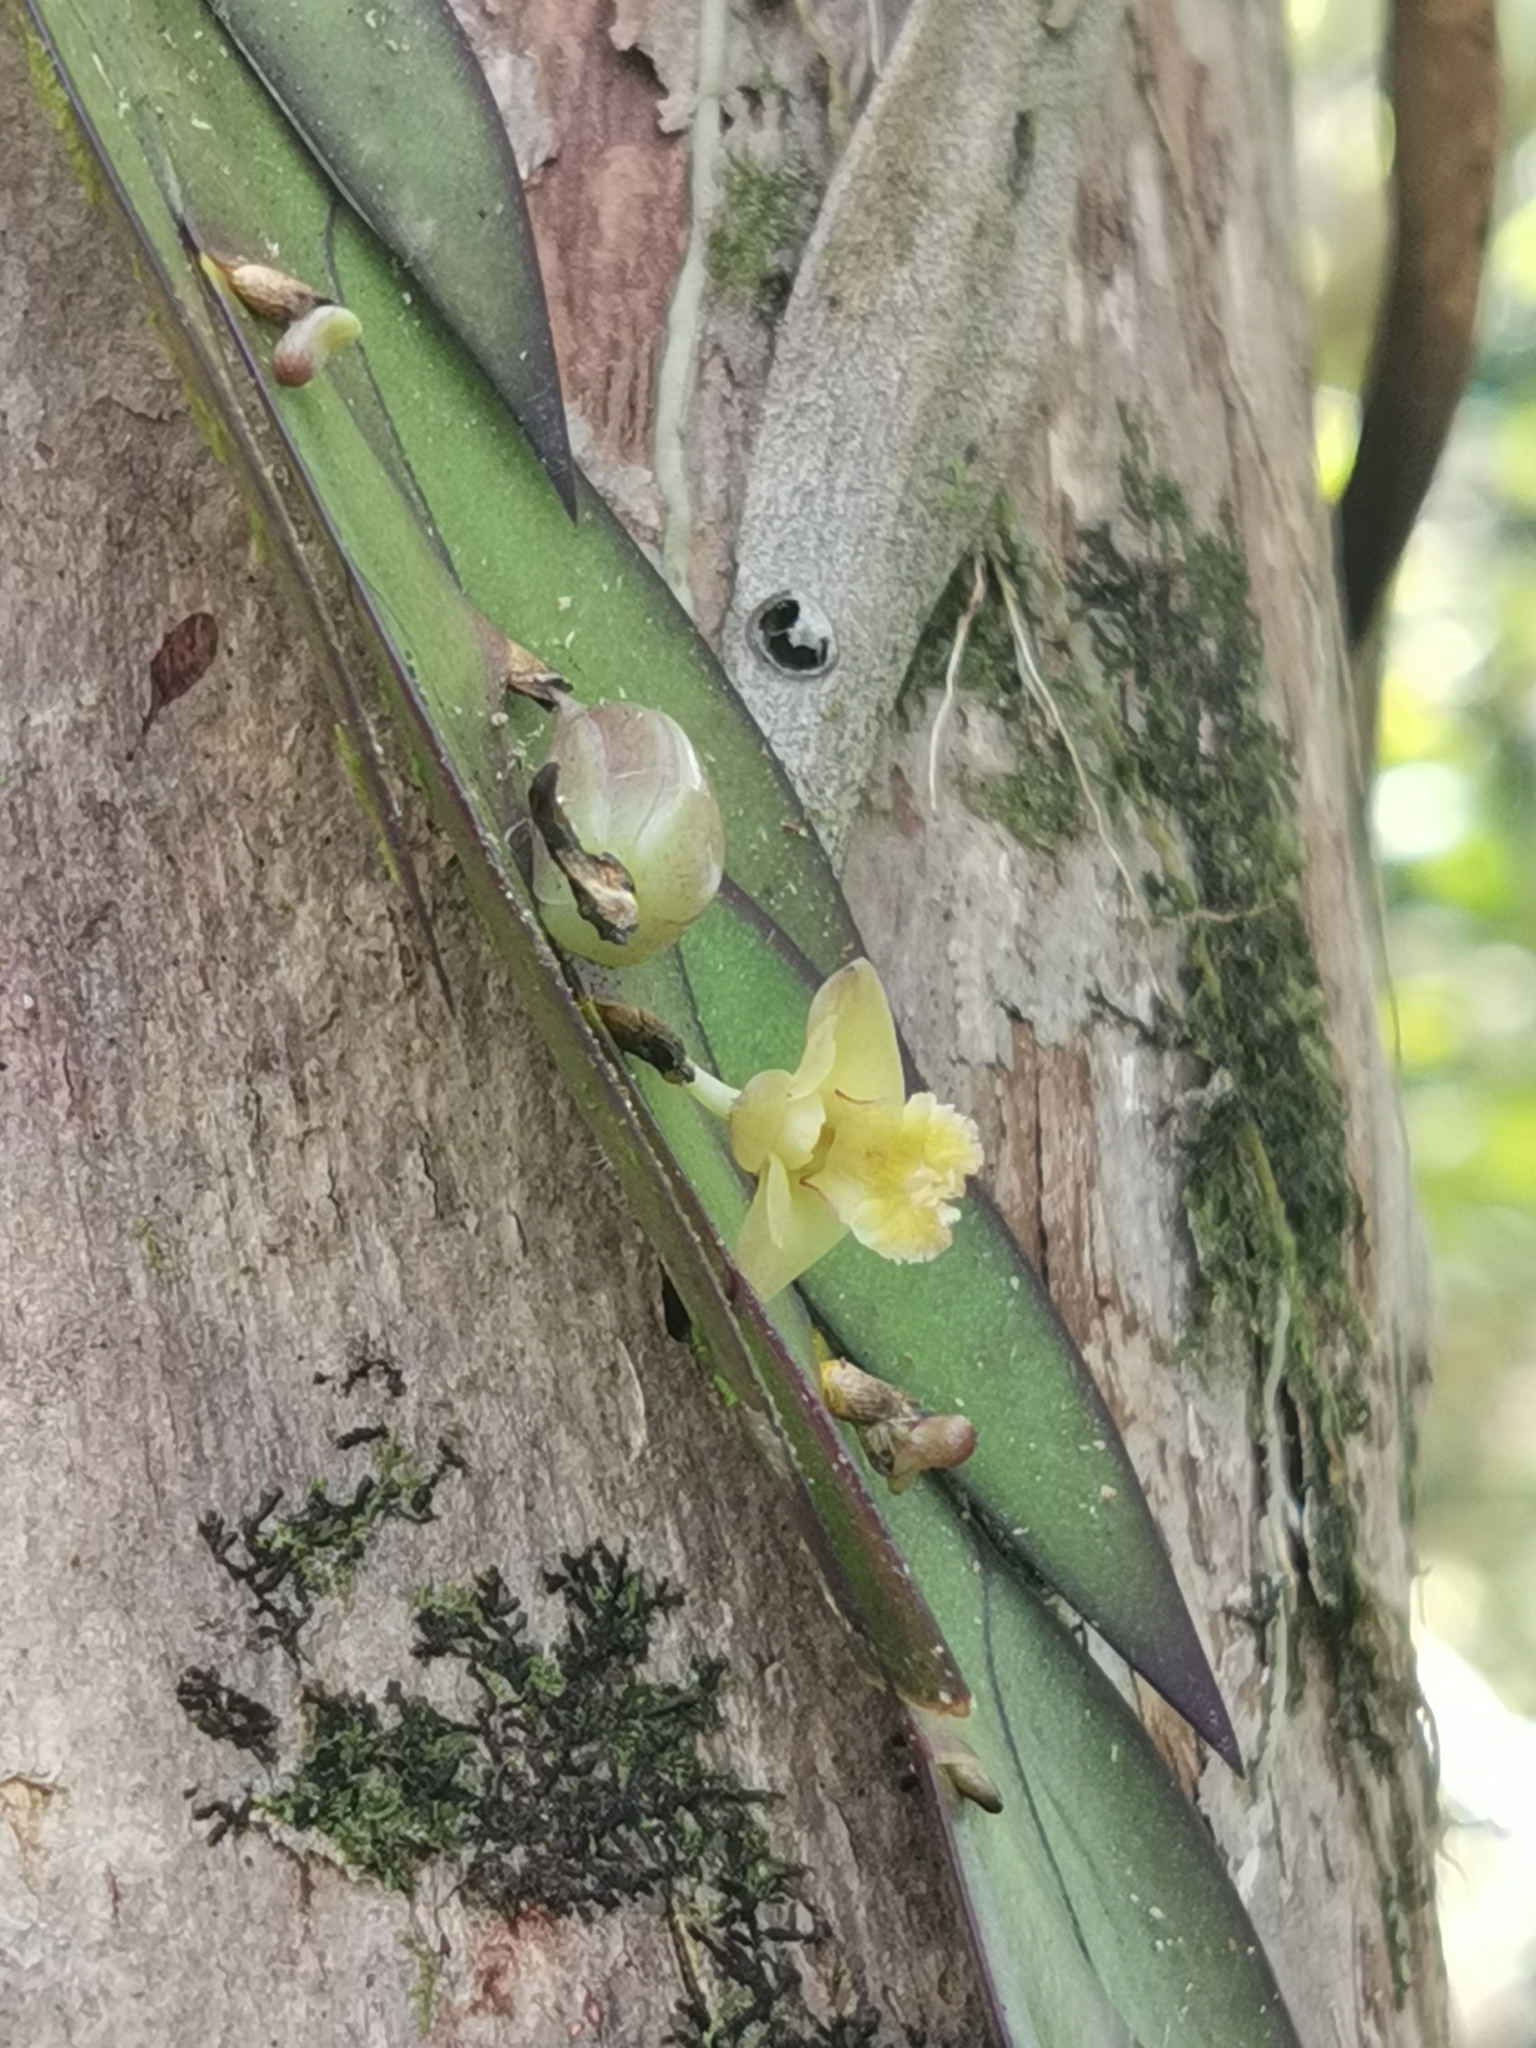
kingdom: Plantae
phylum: Tracheophyta
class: Liliopsida
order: Asparagales
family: Orchidaceae
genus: Dendrobium
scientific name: Dendrobium keithii
